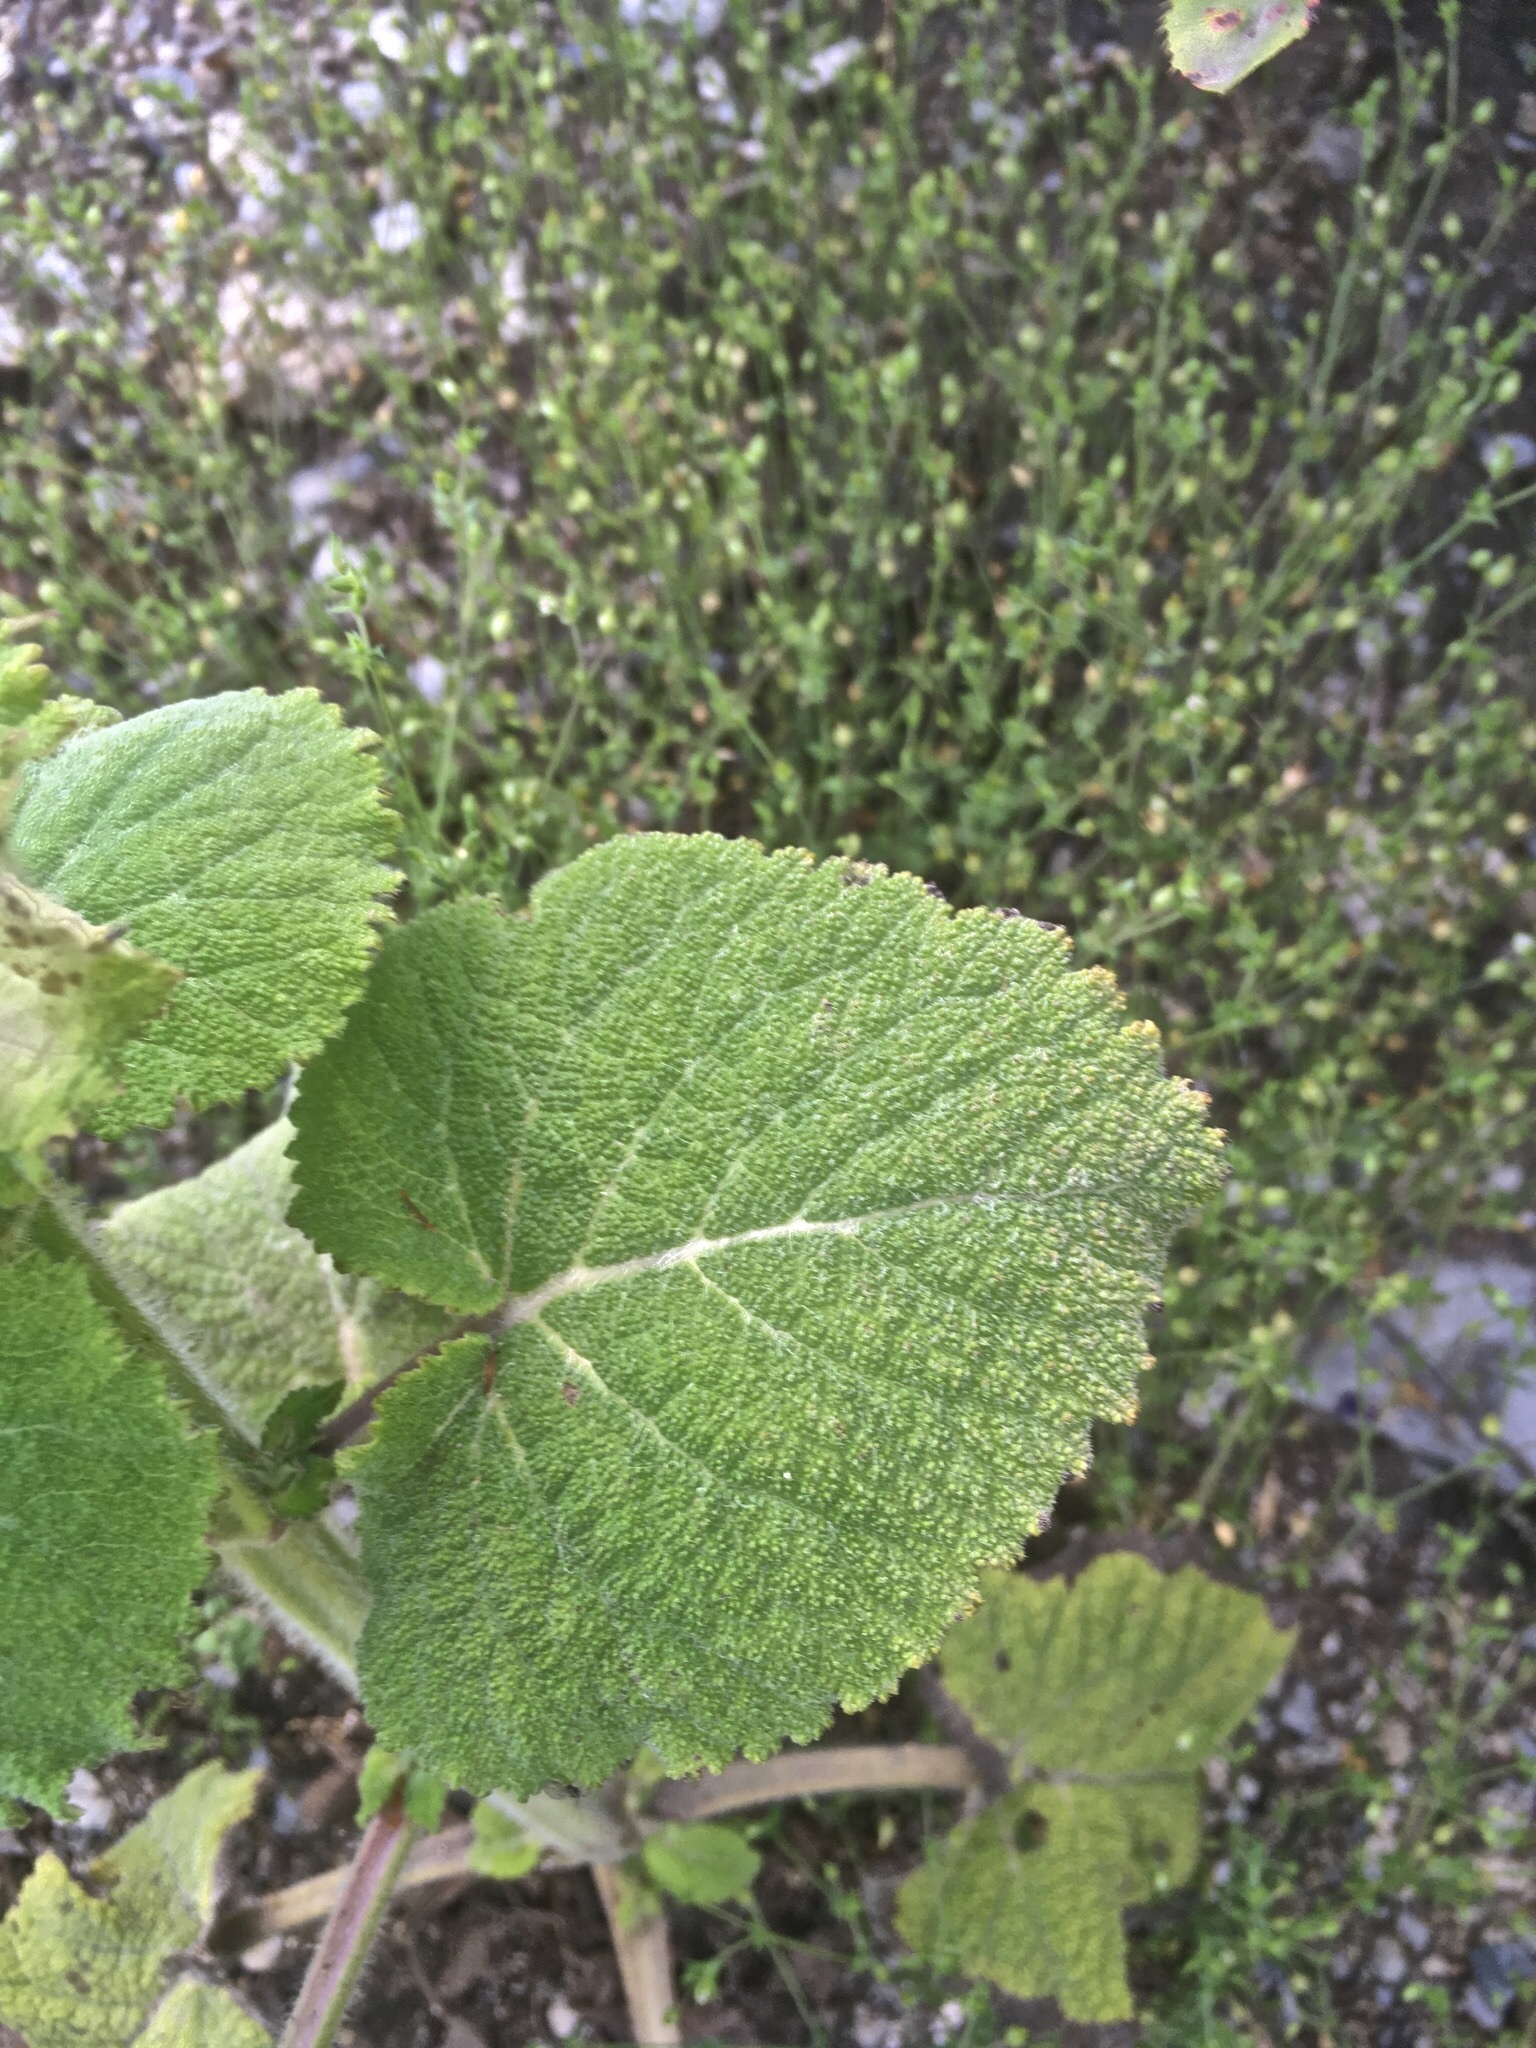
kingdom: Plantae
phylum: Tracheophyta
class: Magnoliopsida
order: Lamiales
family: Lamiaceae
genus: Salvia
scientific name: Salvia sclarea
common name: Clary
